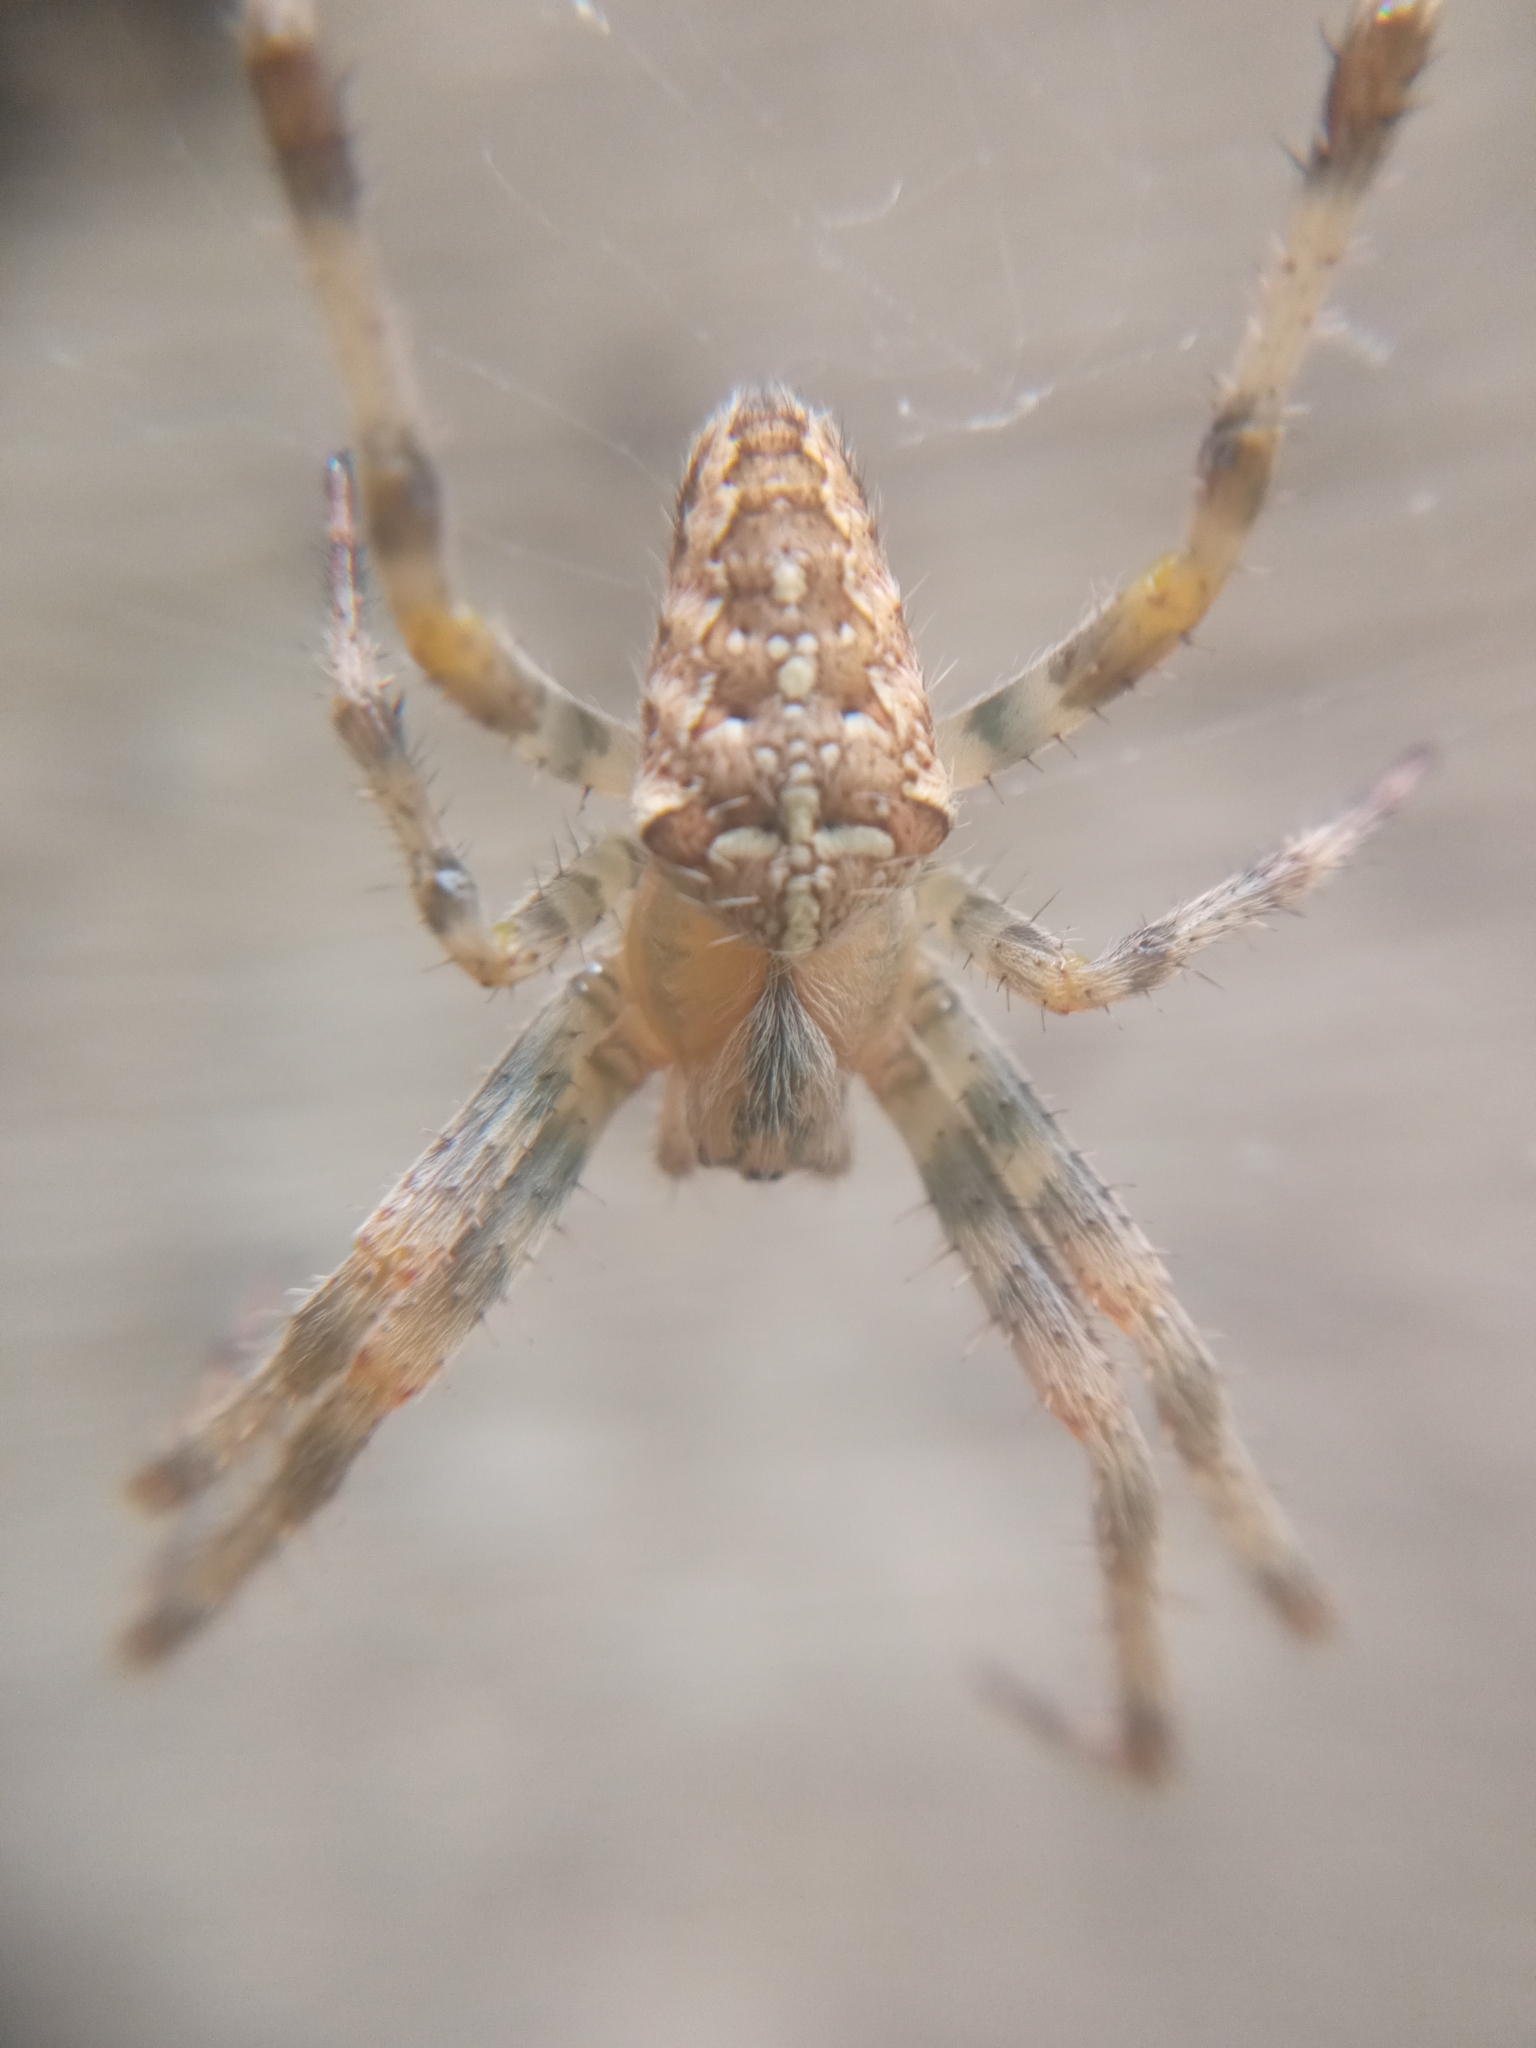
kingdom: Animalia
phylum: Arthropoda
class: Arachnida
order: Araneae
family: Araneidae
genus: Araneus
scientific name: Araneus diadematus
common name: Cross orbweaver
